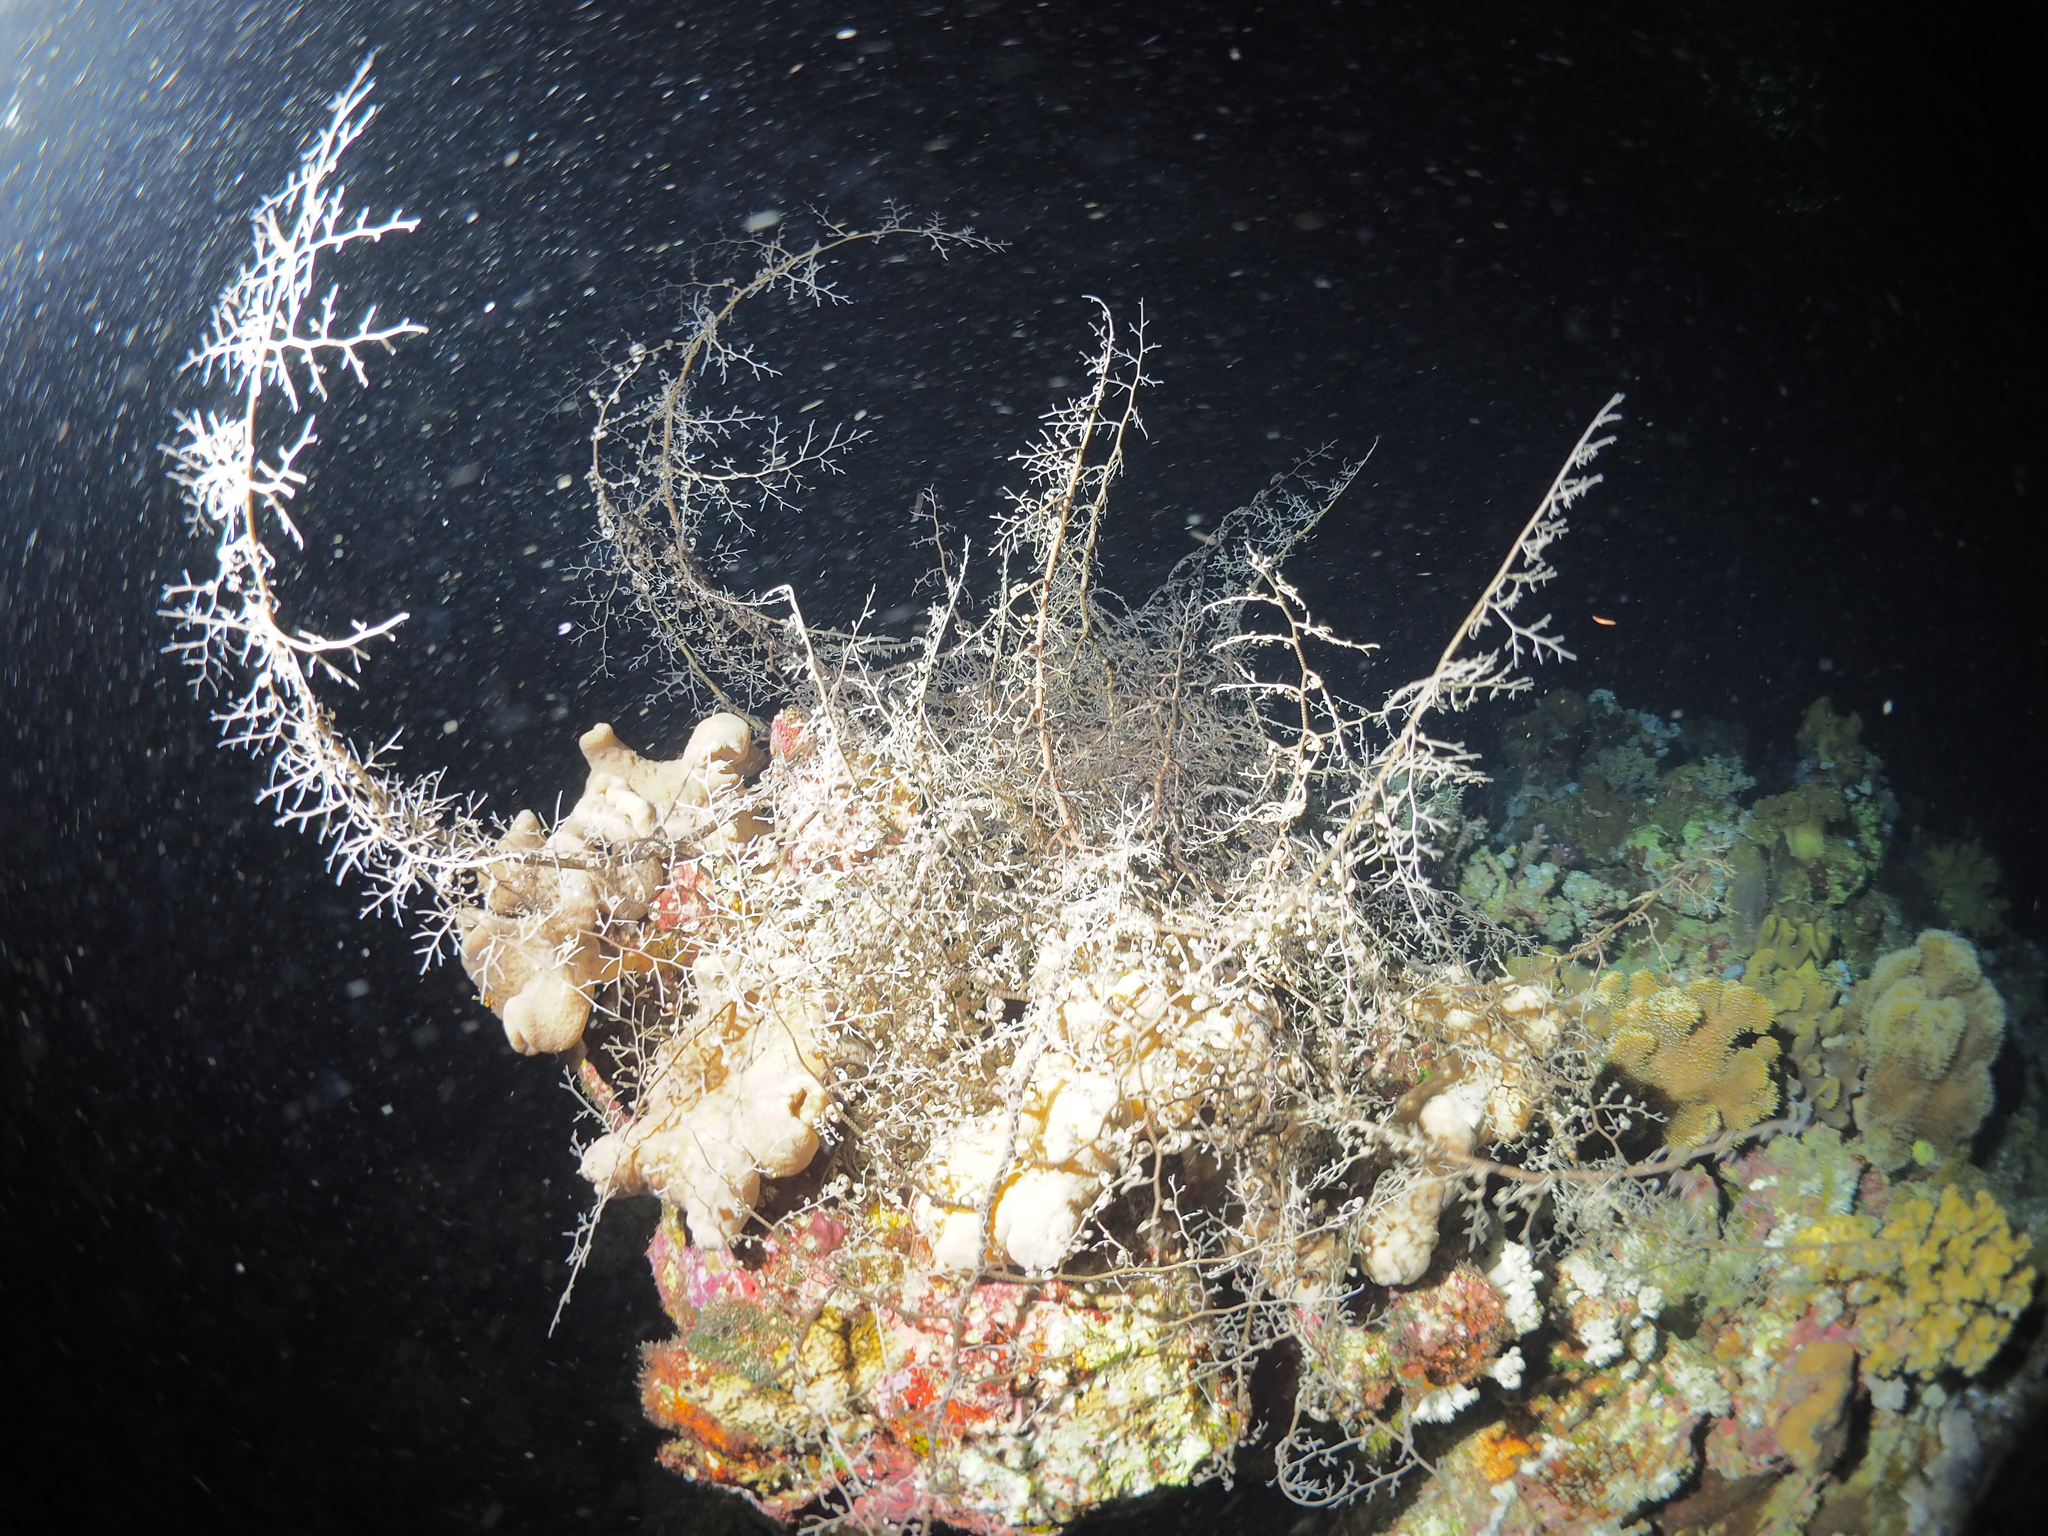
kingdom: Animalia
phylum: Echinodermata
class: Ophiuroidea
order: Euryalida
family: Gorgonocephalidae
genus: Astroboa
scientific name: Astroboa nuda
